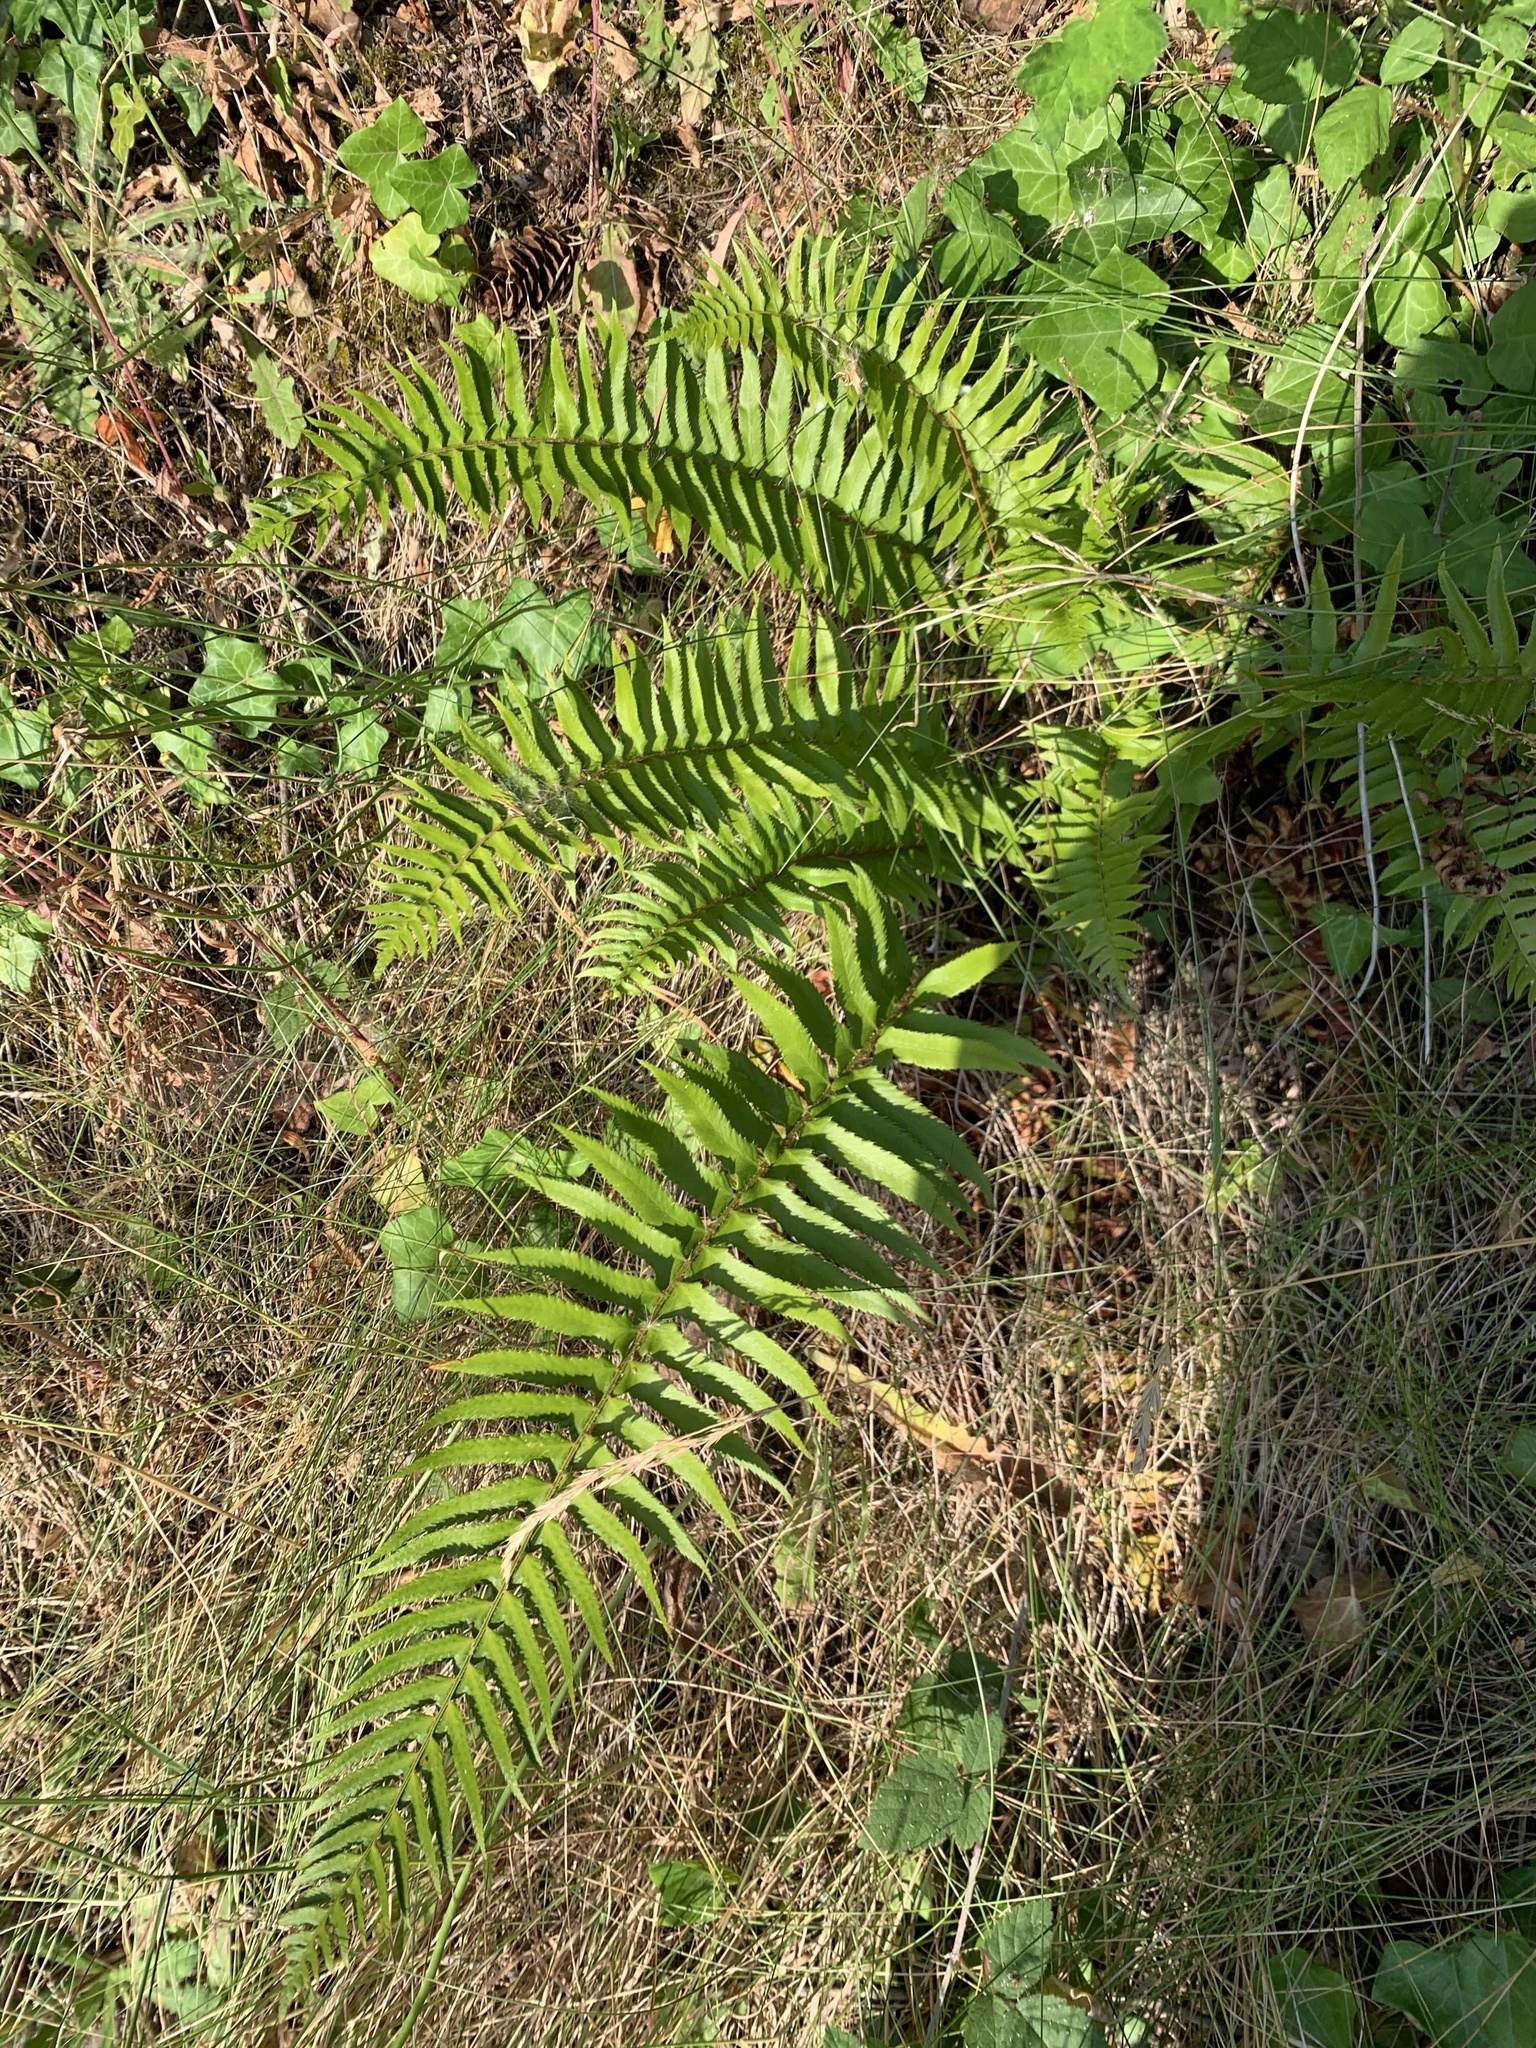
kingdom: Plantae
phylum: Tracheophyta
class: Polypodiopsida
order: Polypodiales
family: Dryopteridaceae
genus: Polystichum
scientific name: Polystichum munitum
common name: Western sword-fern
